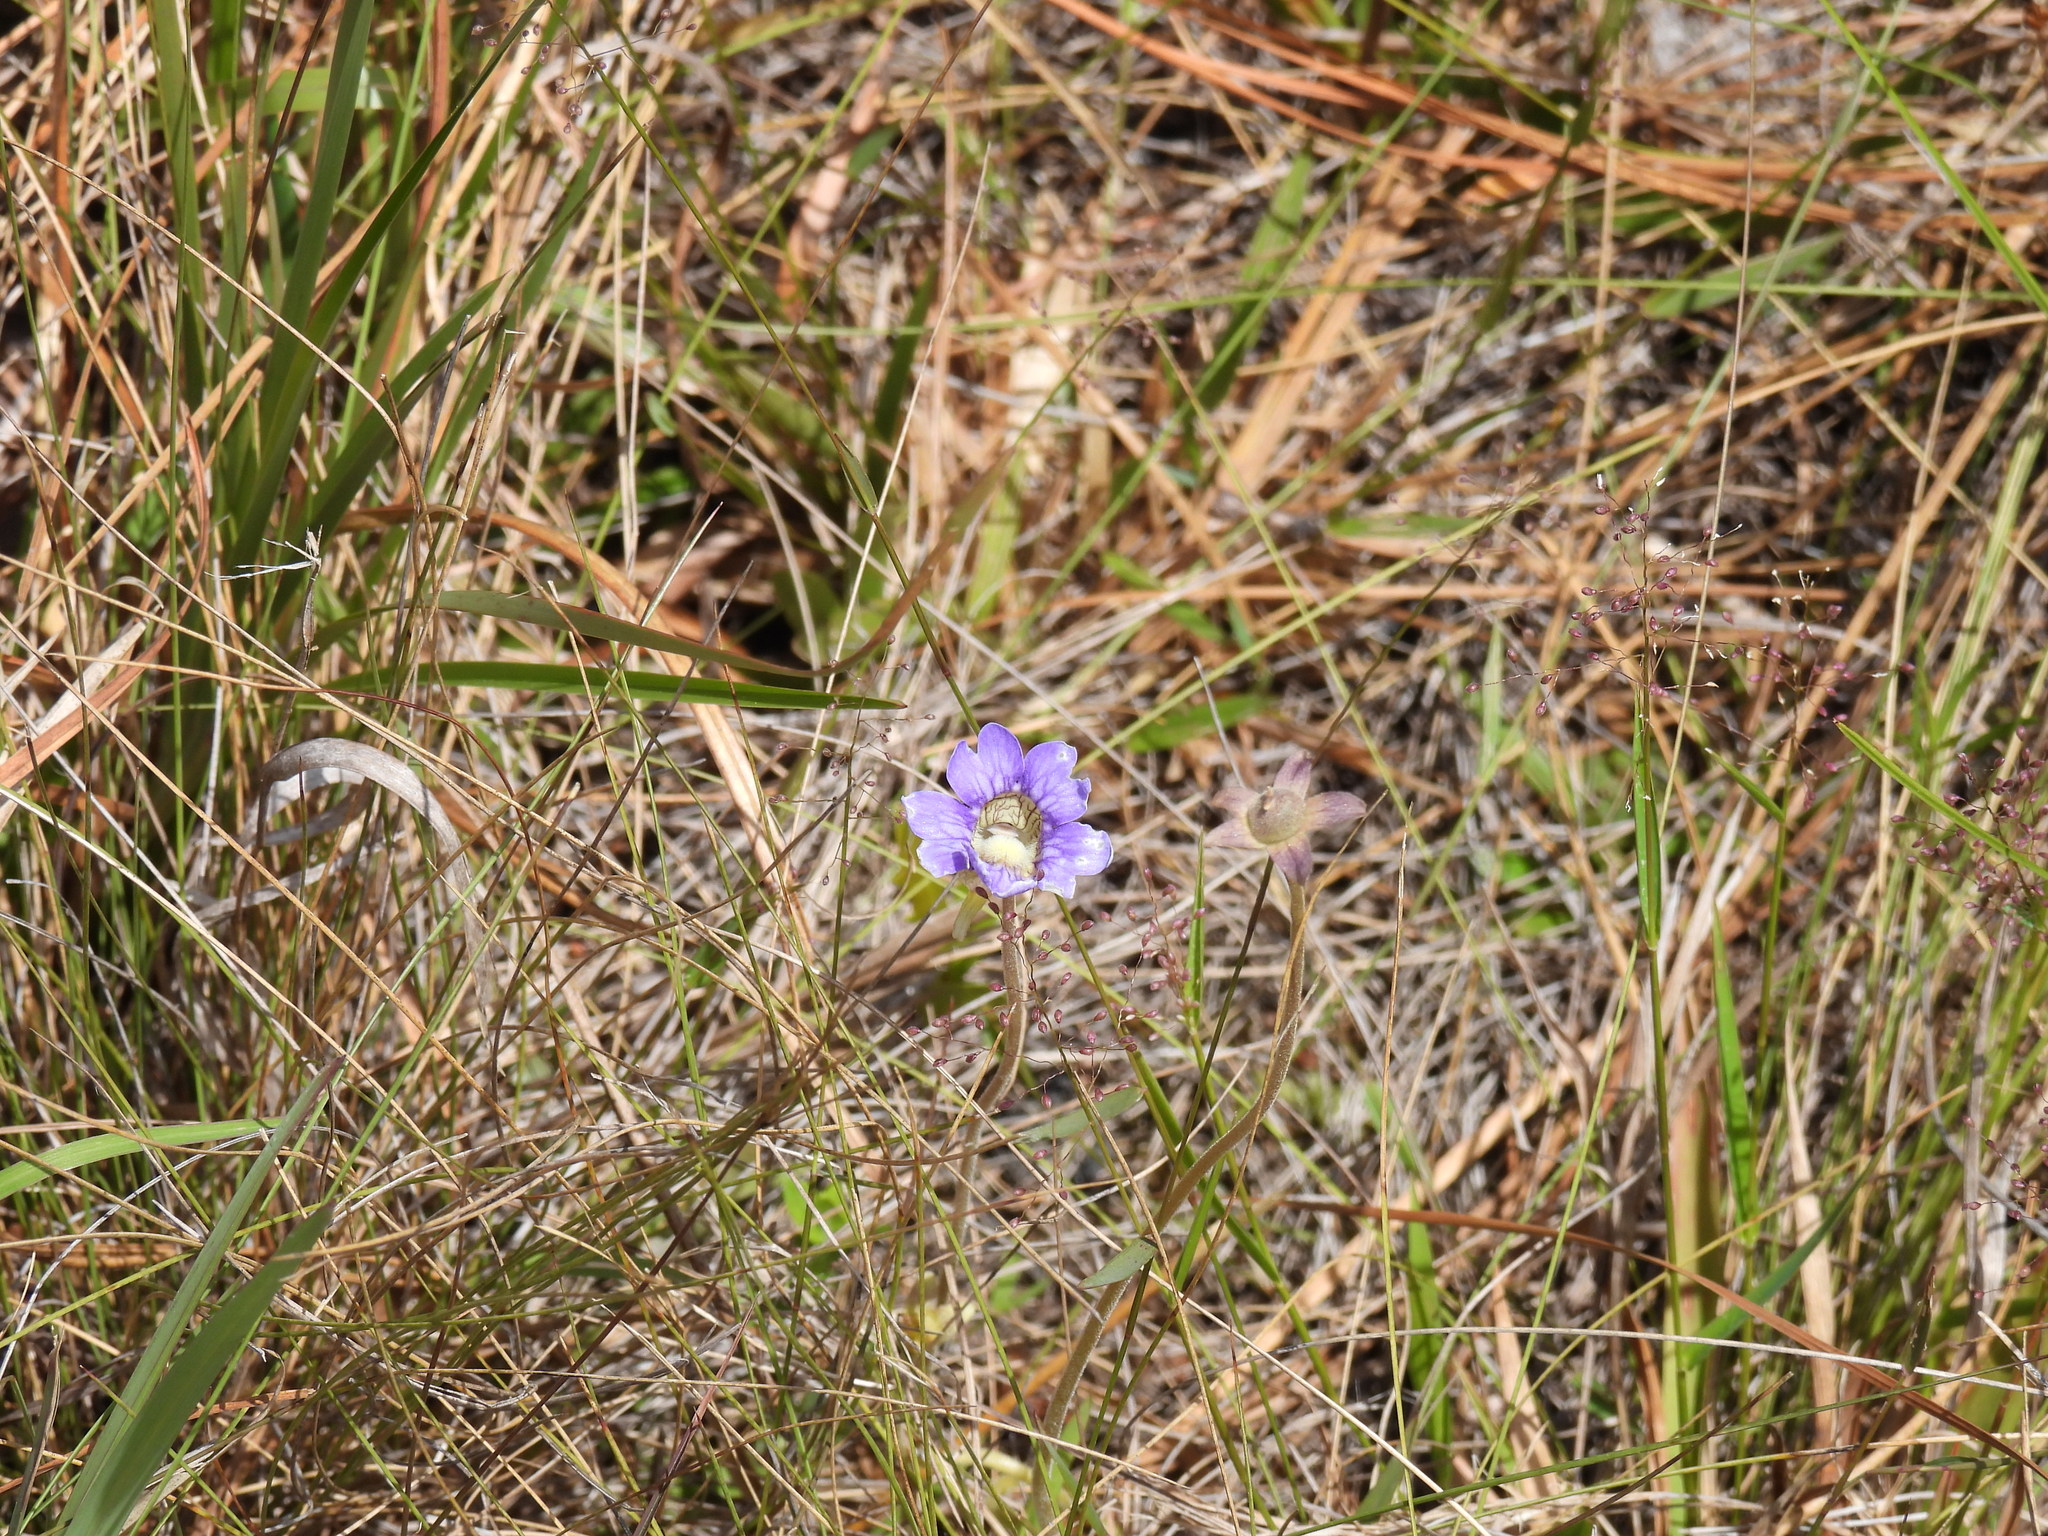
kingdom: Plantae
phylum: Tracheophyta
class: Magnoliopsida
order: Lamiales
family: Lentibulariaceae
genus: Pinguicula
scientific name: Pinguicula caerulea
